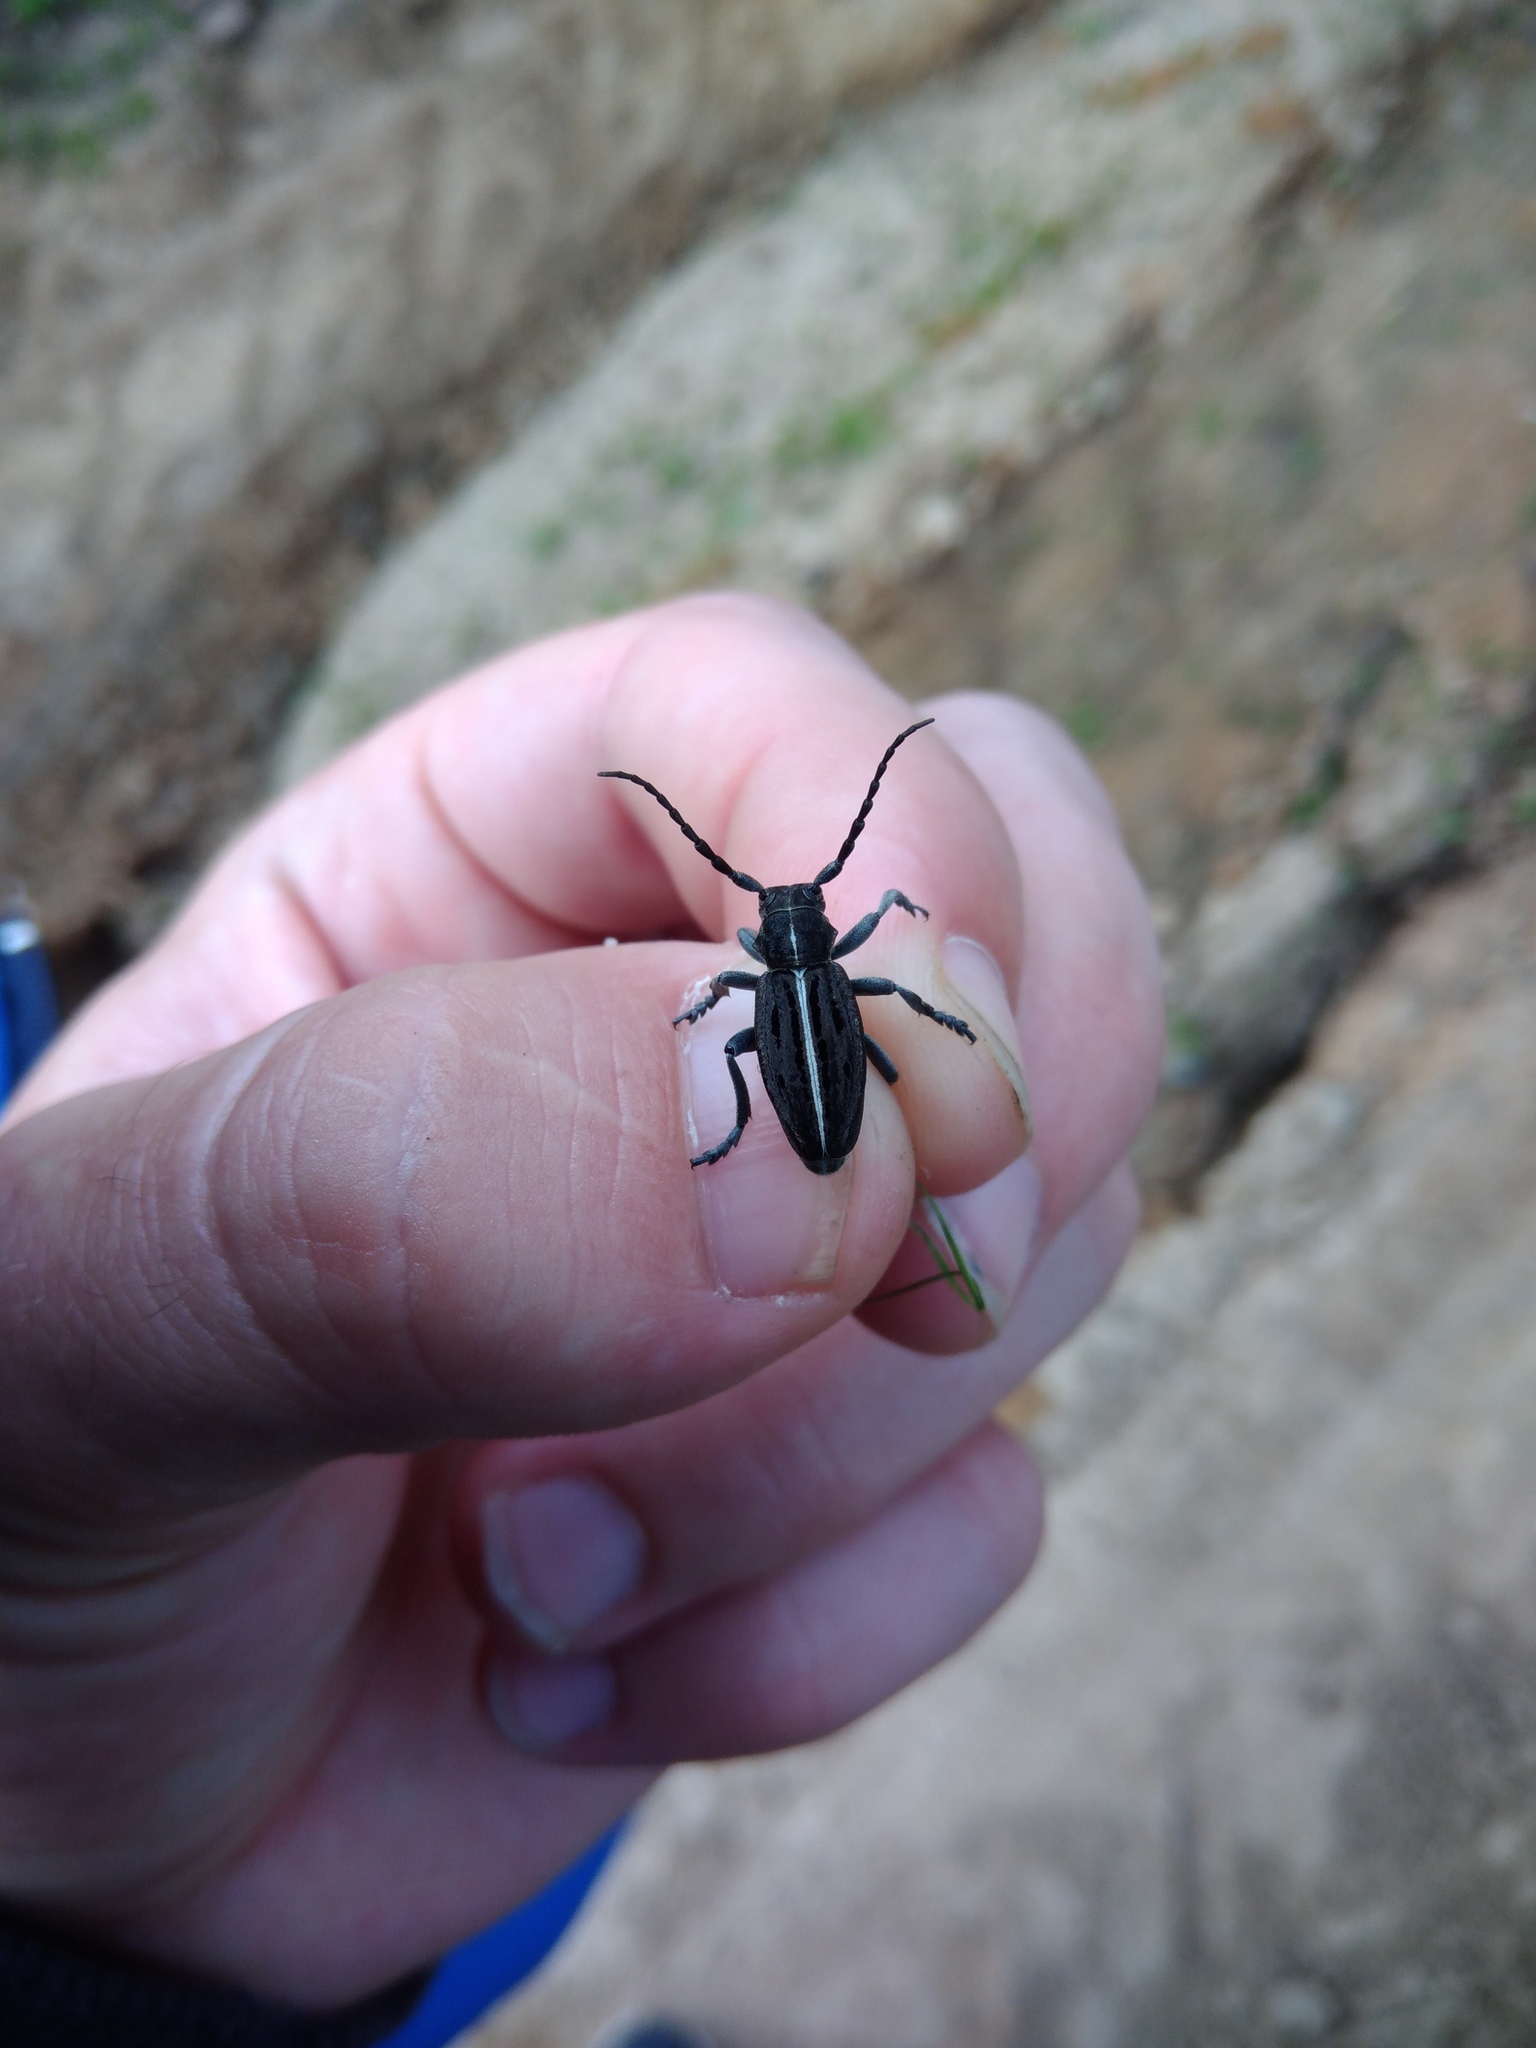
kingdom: Animalia
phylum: Arthropoda
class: Insecta
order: Coleoptera
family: Cerambycidae
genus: Dorcadion
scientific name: Dorcadion holosericeum
